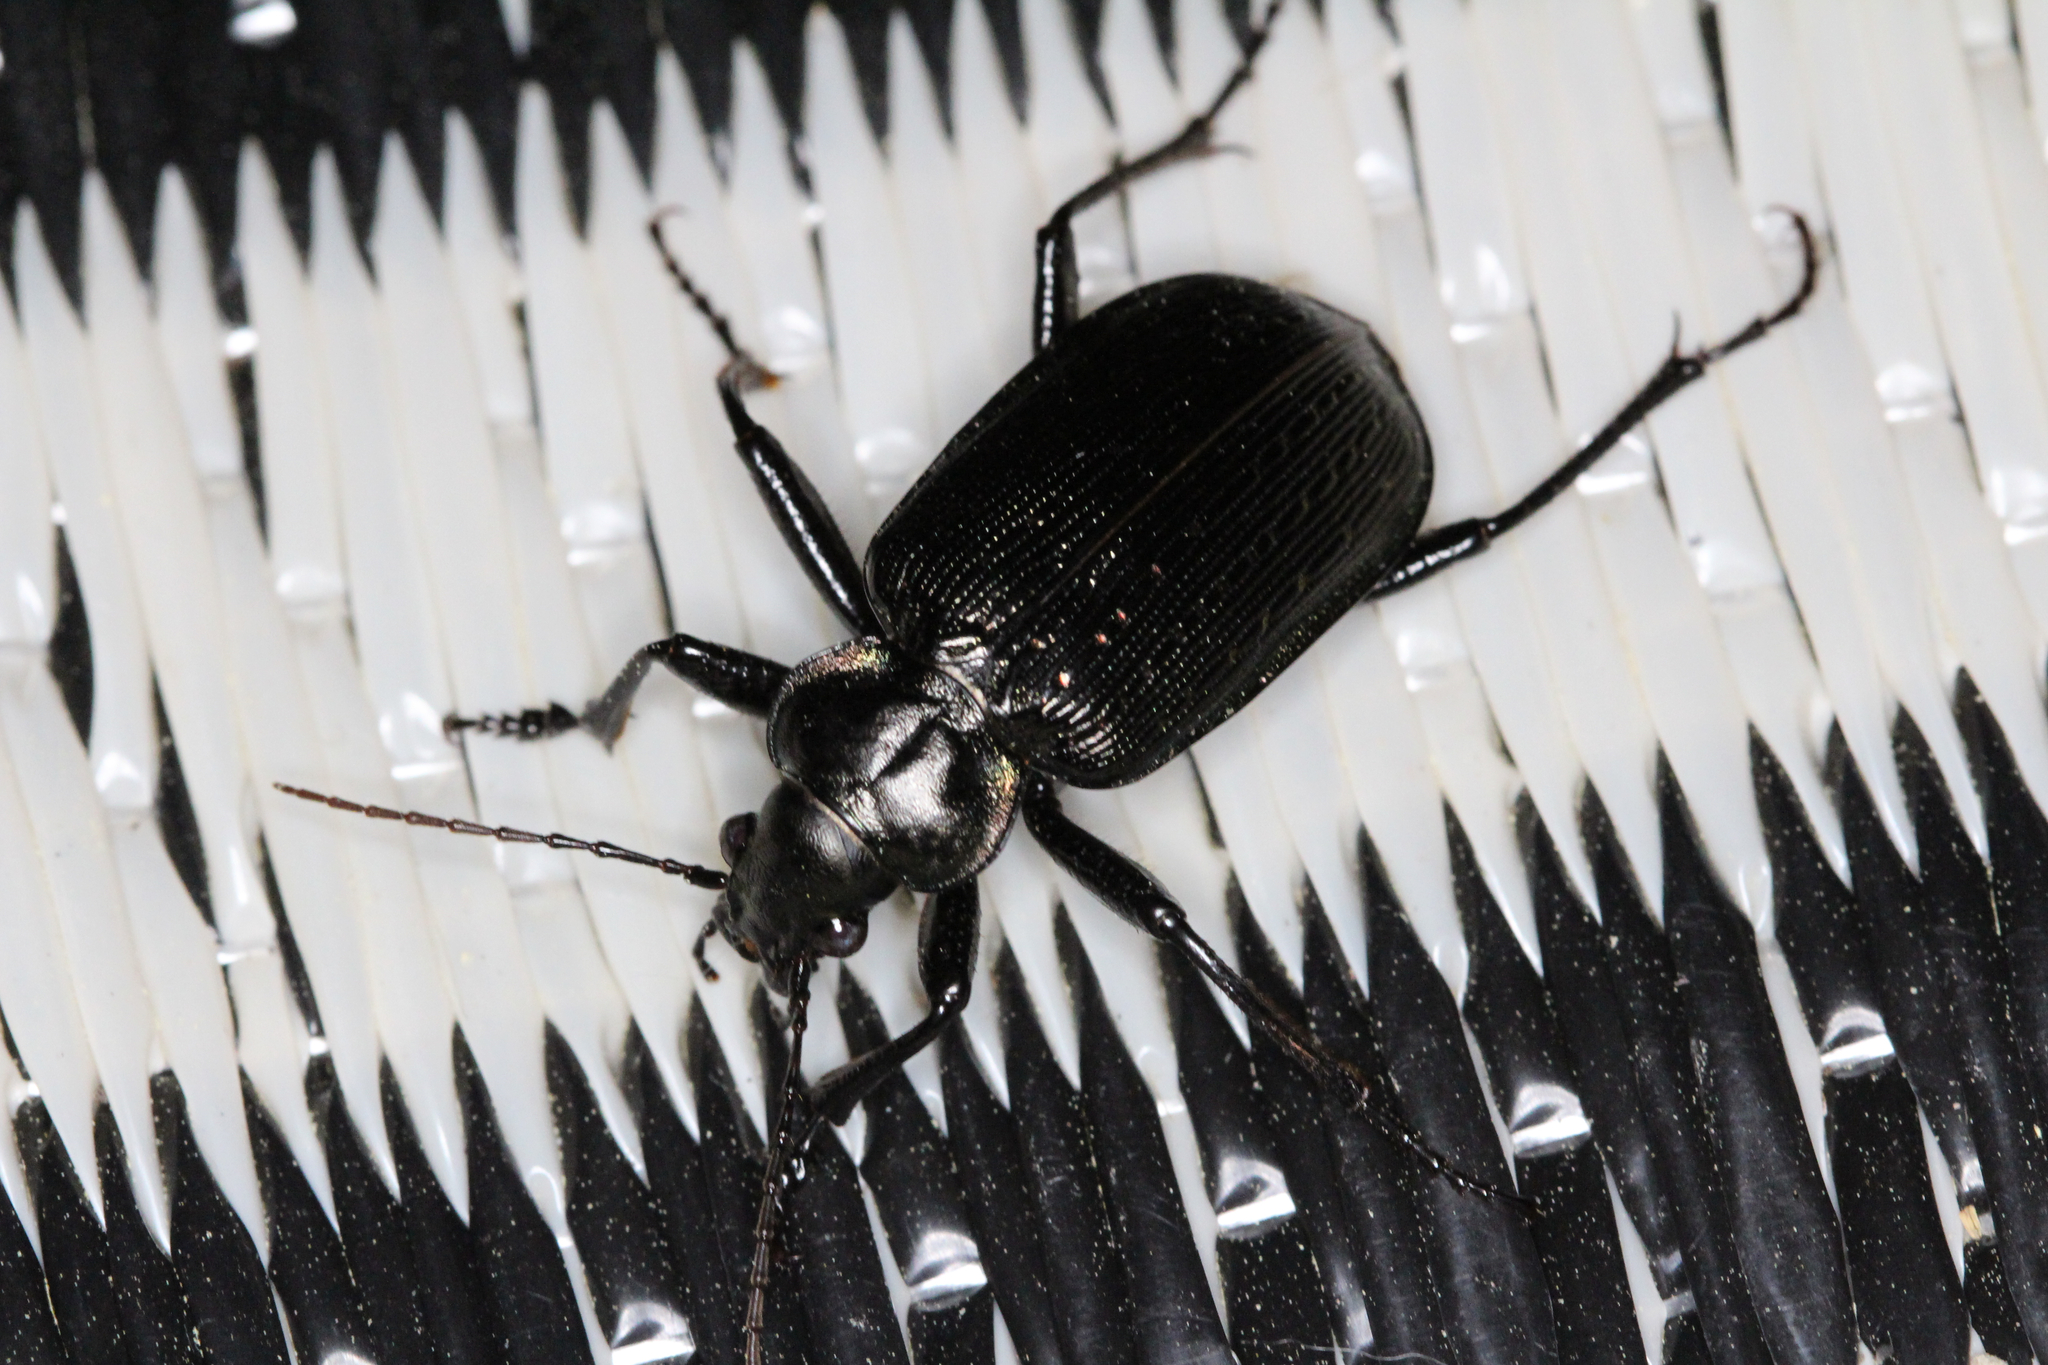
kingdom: Animalia
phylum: Arthropoda
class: Insecta
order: Coleoptera
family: Carabidae
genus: Calosoma
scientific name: Calosoma sayi
